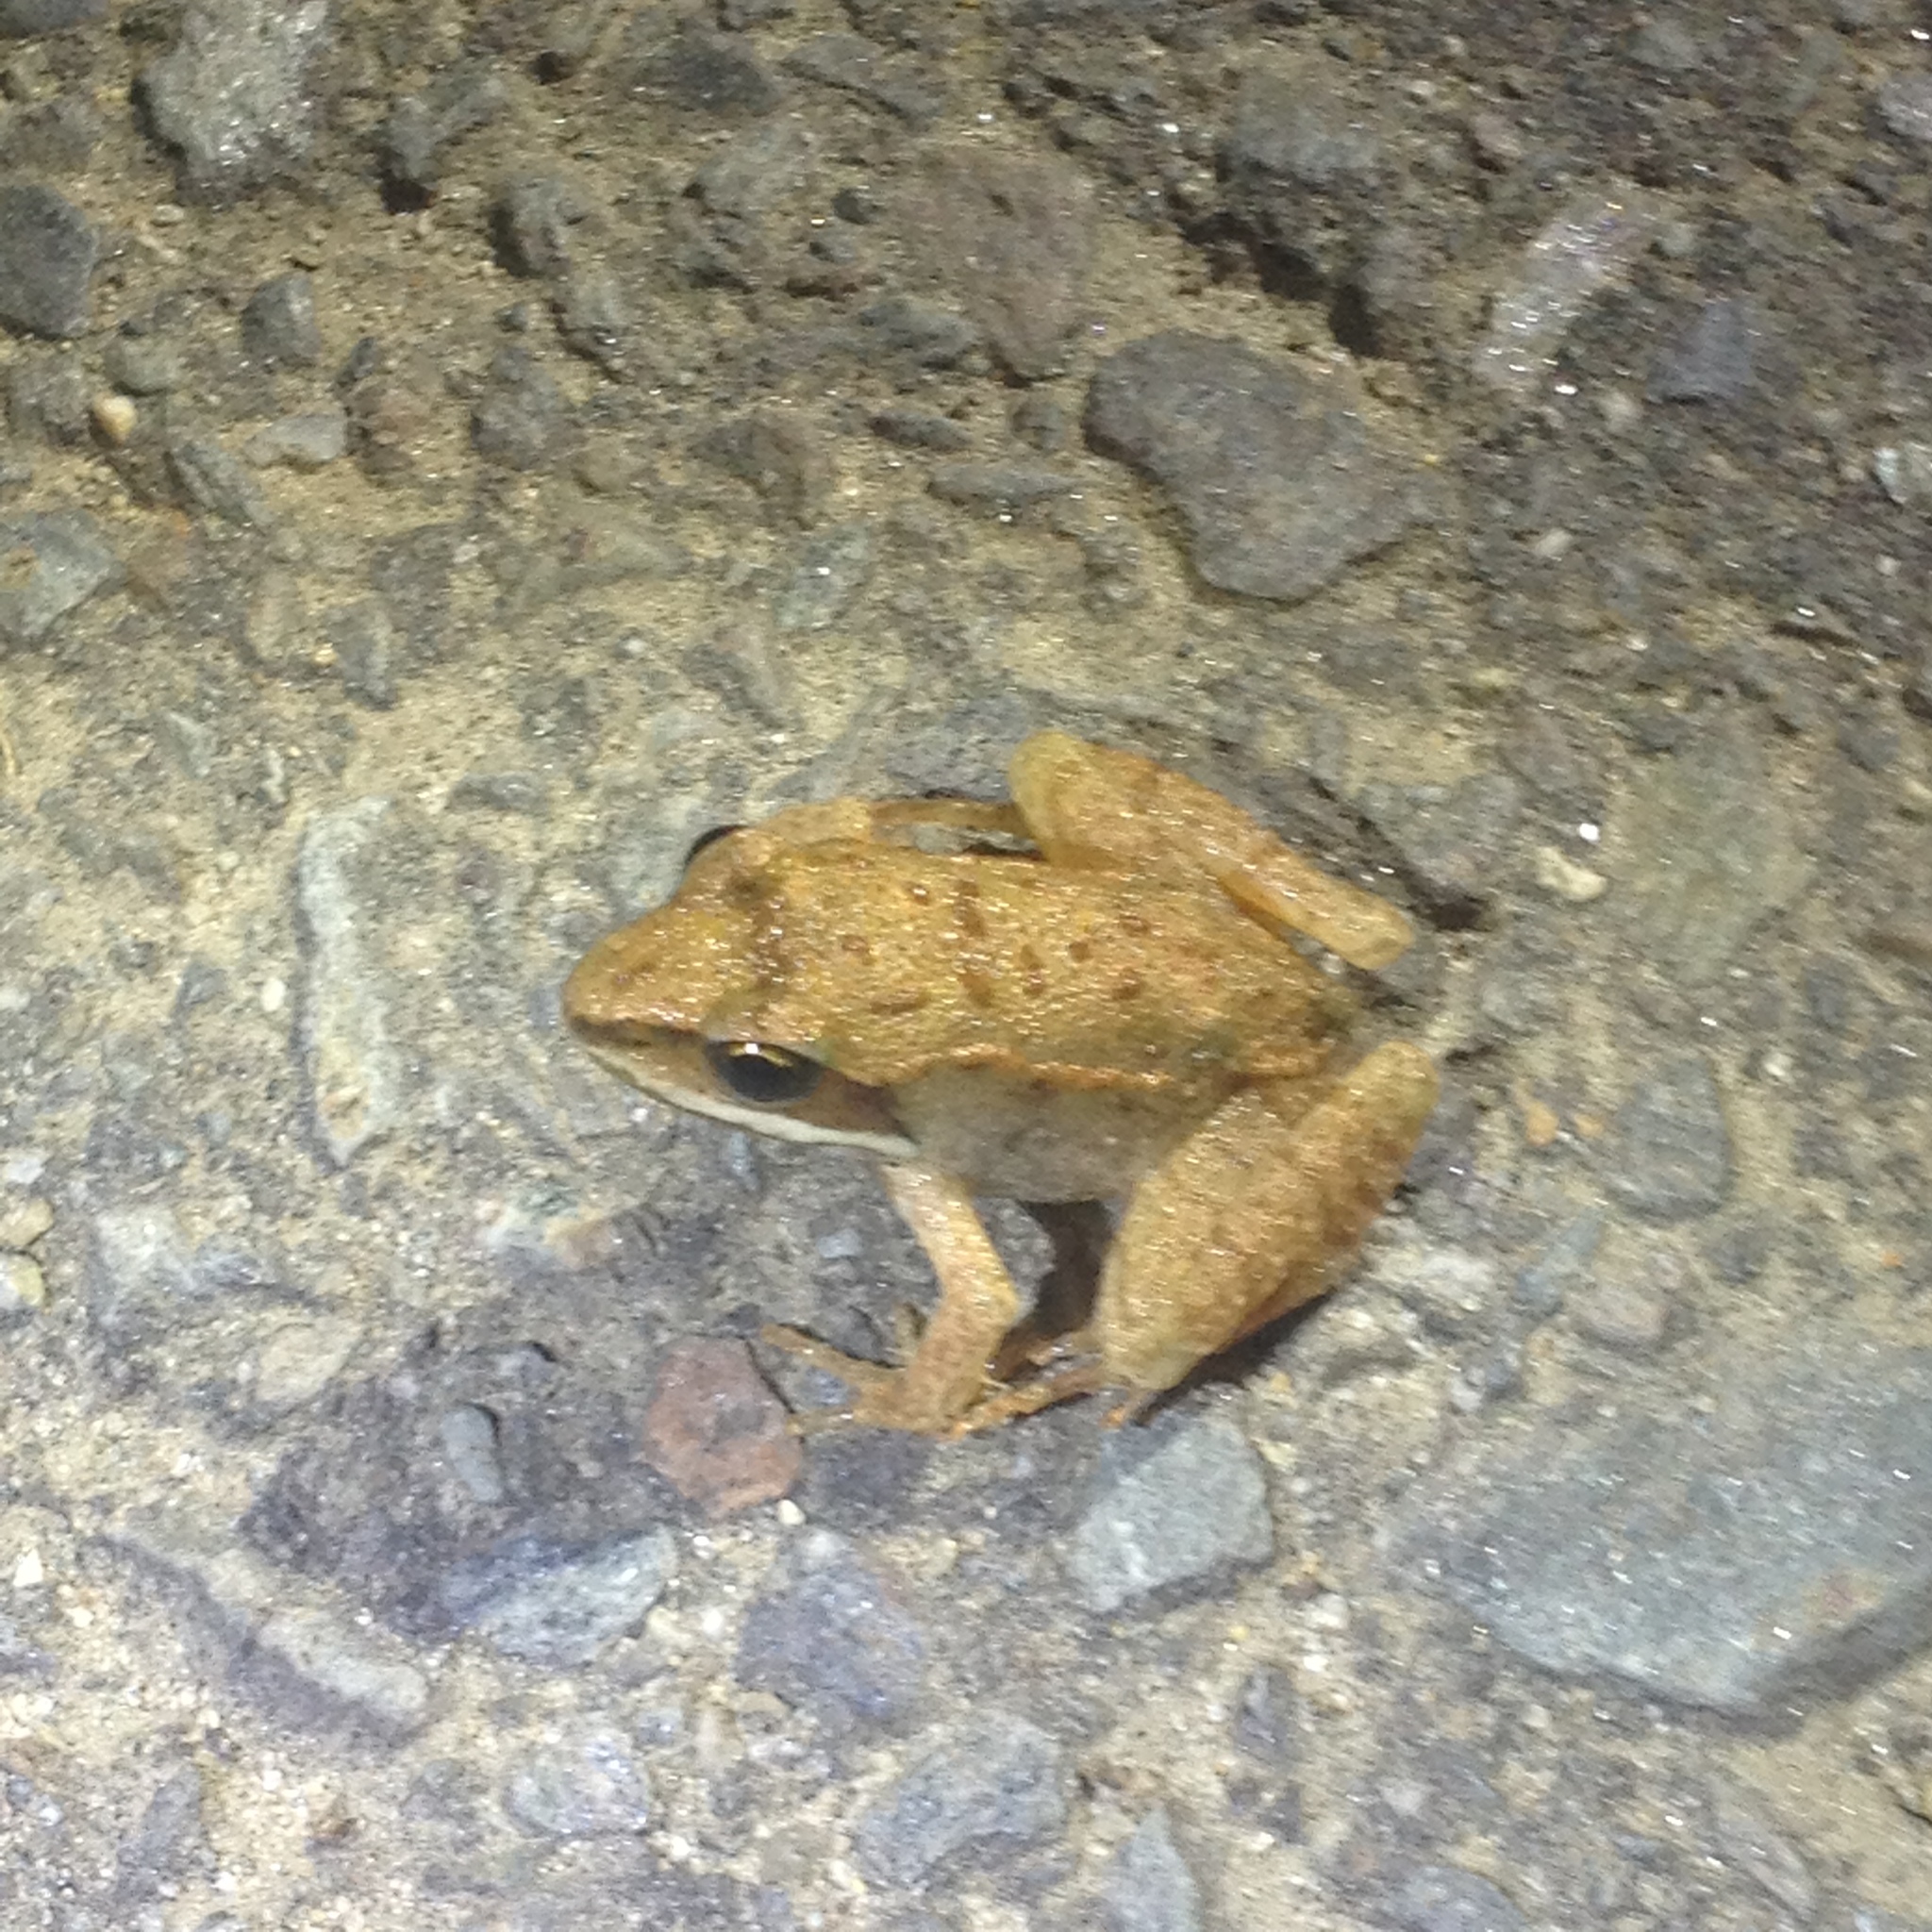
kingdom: Animalia
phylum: Chordata
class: Amphibia
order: Anura
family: Ranidae
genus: Lithobates
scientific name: Lithobates sylvaticus
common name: Wood frog
